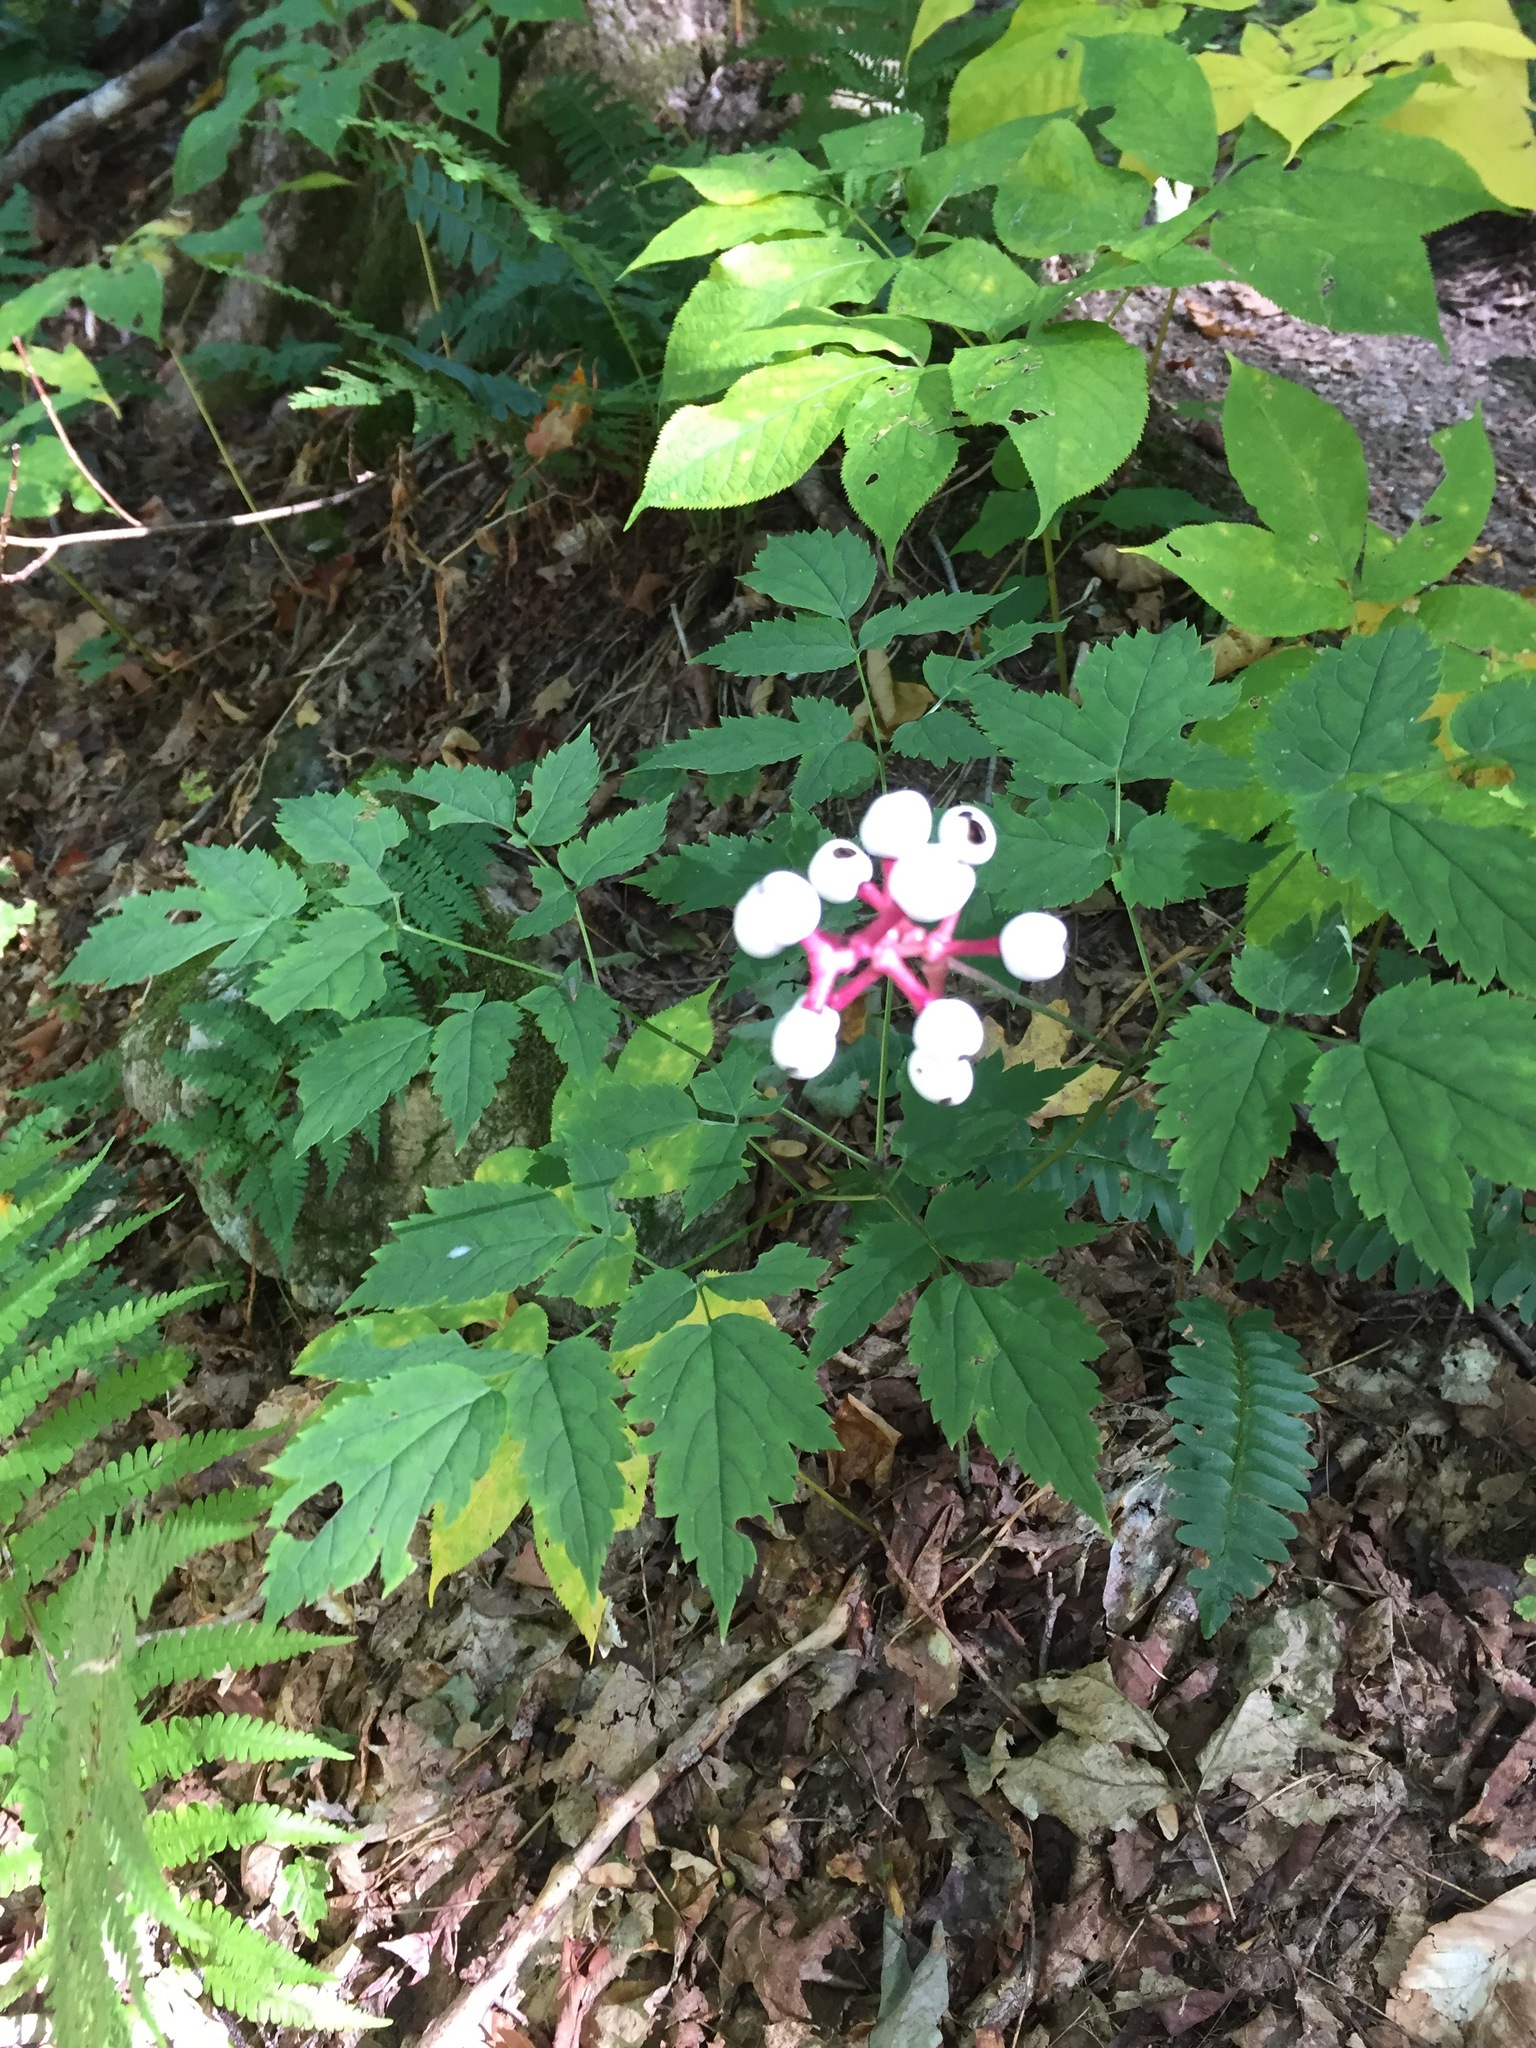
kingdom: Plantae
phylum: Tracheophyta
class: Magnoliopsida
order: Ranunculales
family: Ranunculaceae
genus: Actaea
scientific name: Actaea pachypoda
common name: Doll's-eyes
